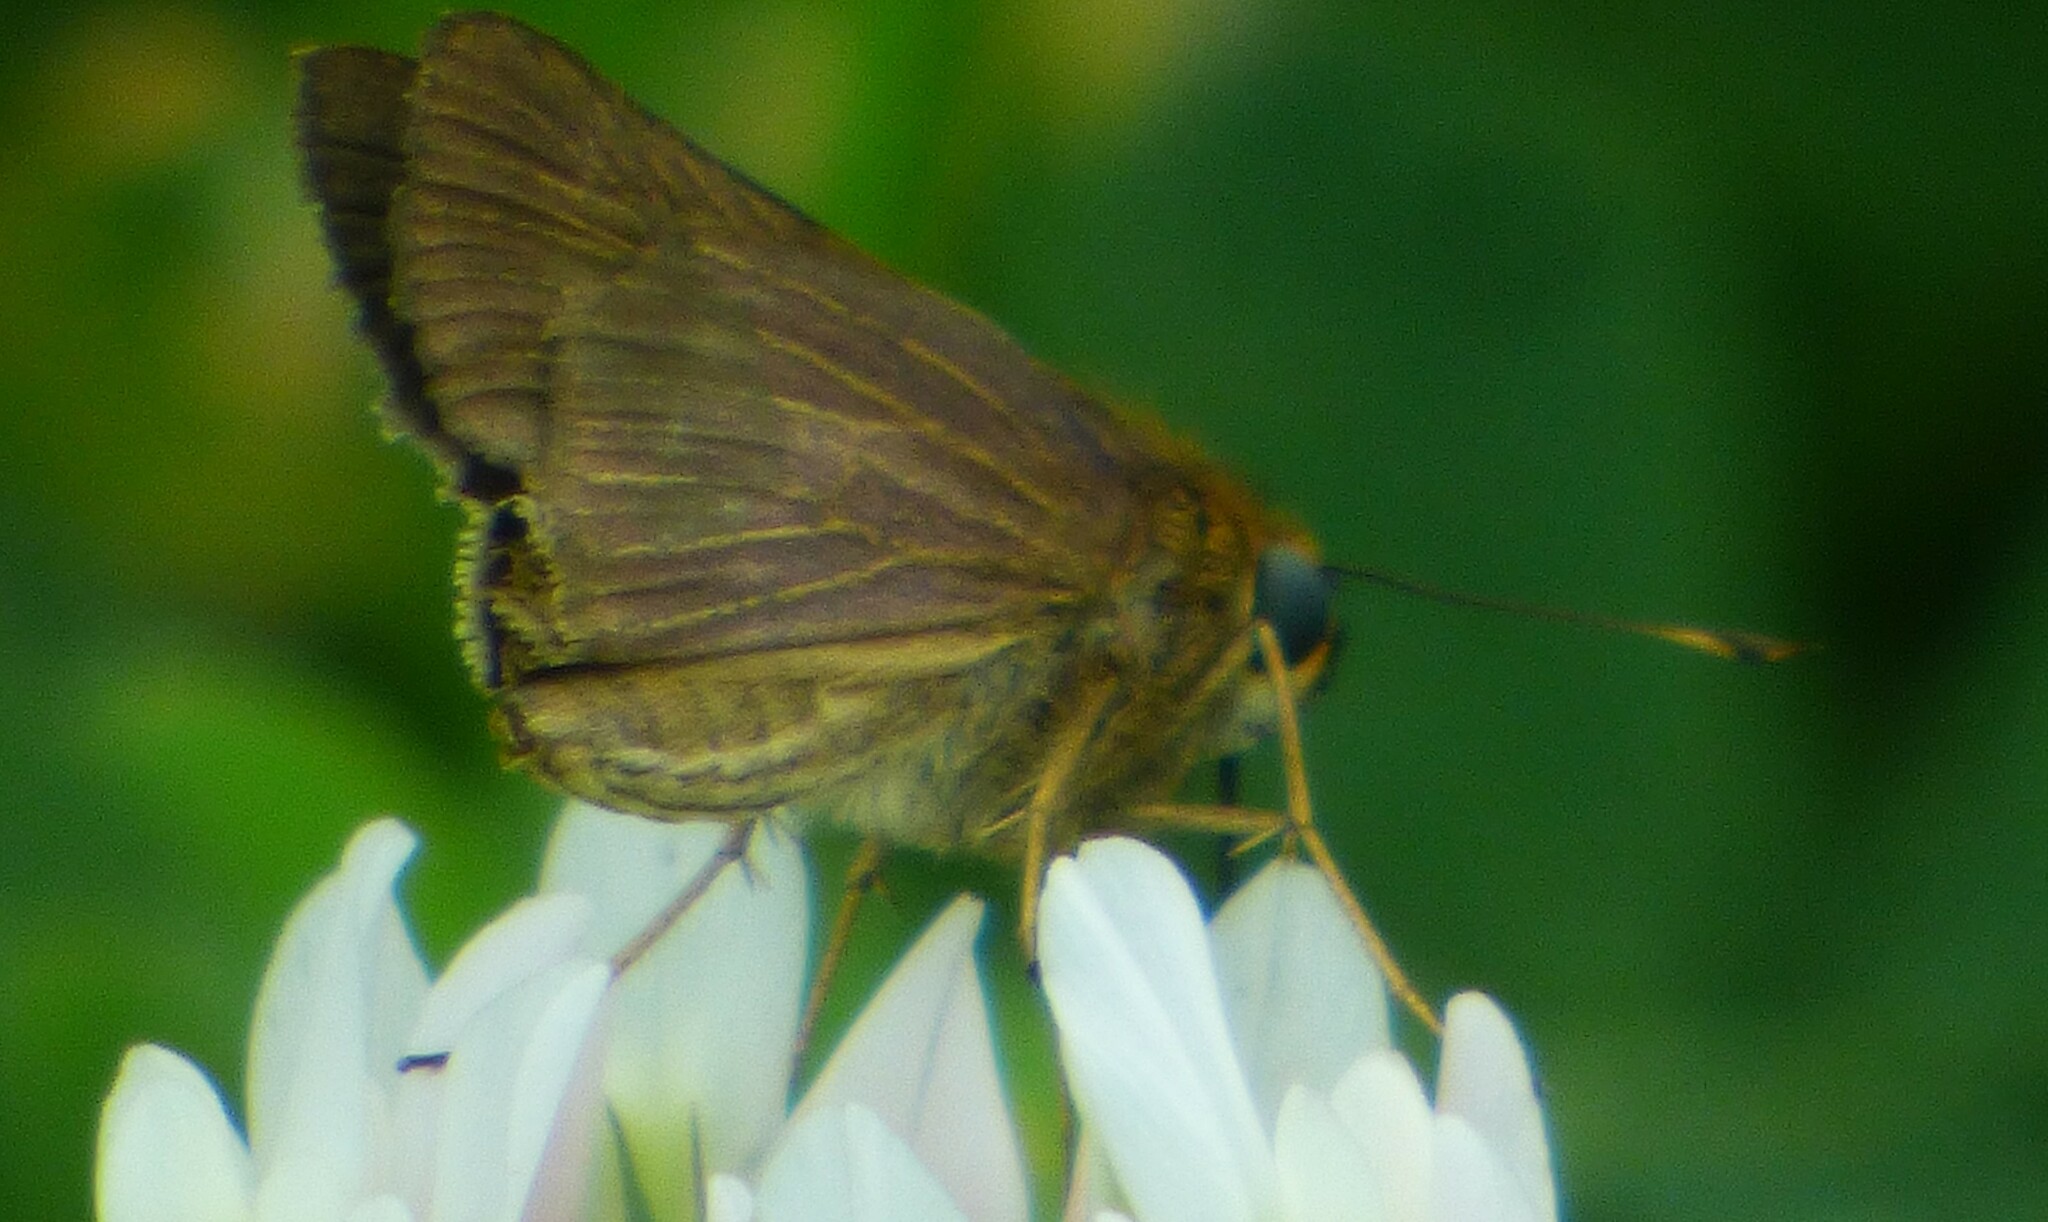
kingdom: Animalia
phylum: Arthropoda
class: Insecta
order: Lepidoptera
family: Hesperiidae
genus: Panoquina
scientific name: Panoquina ocola
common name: Ocola skipper
